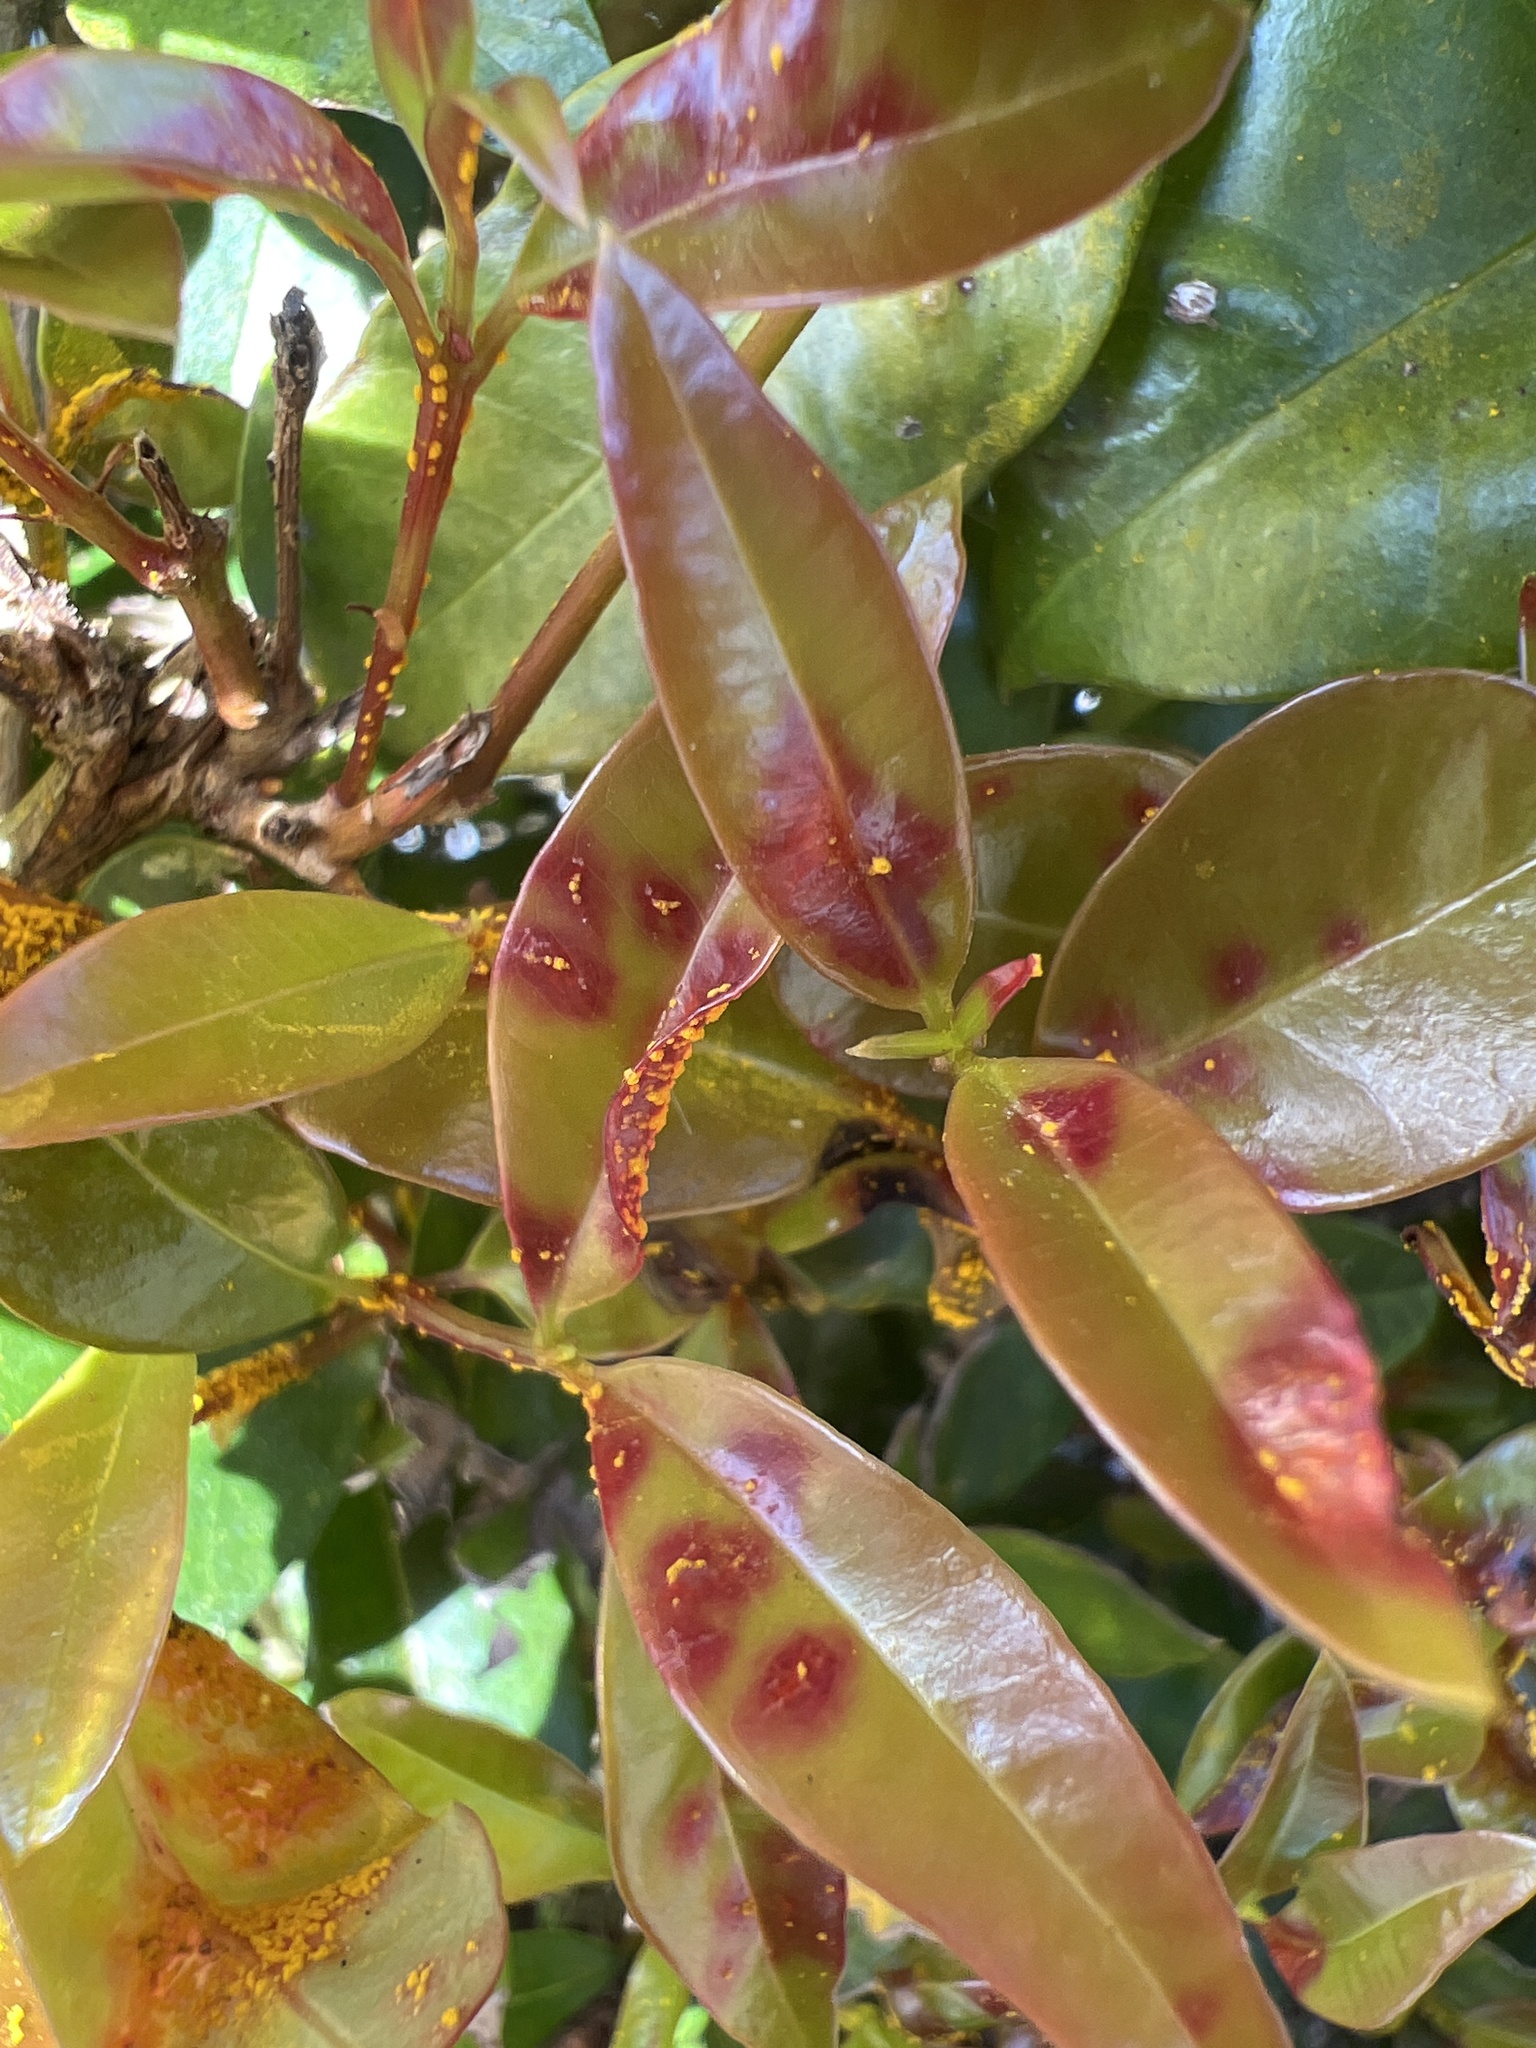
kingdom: Fungi
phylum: Basidiomycota
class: Pucciniomycetes
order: Pucciniales
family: Sphaerophragmiaceae
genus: Austropuccinia
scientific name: Austropuccinia psidii
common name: Myrtle rust
